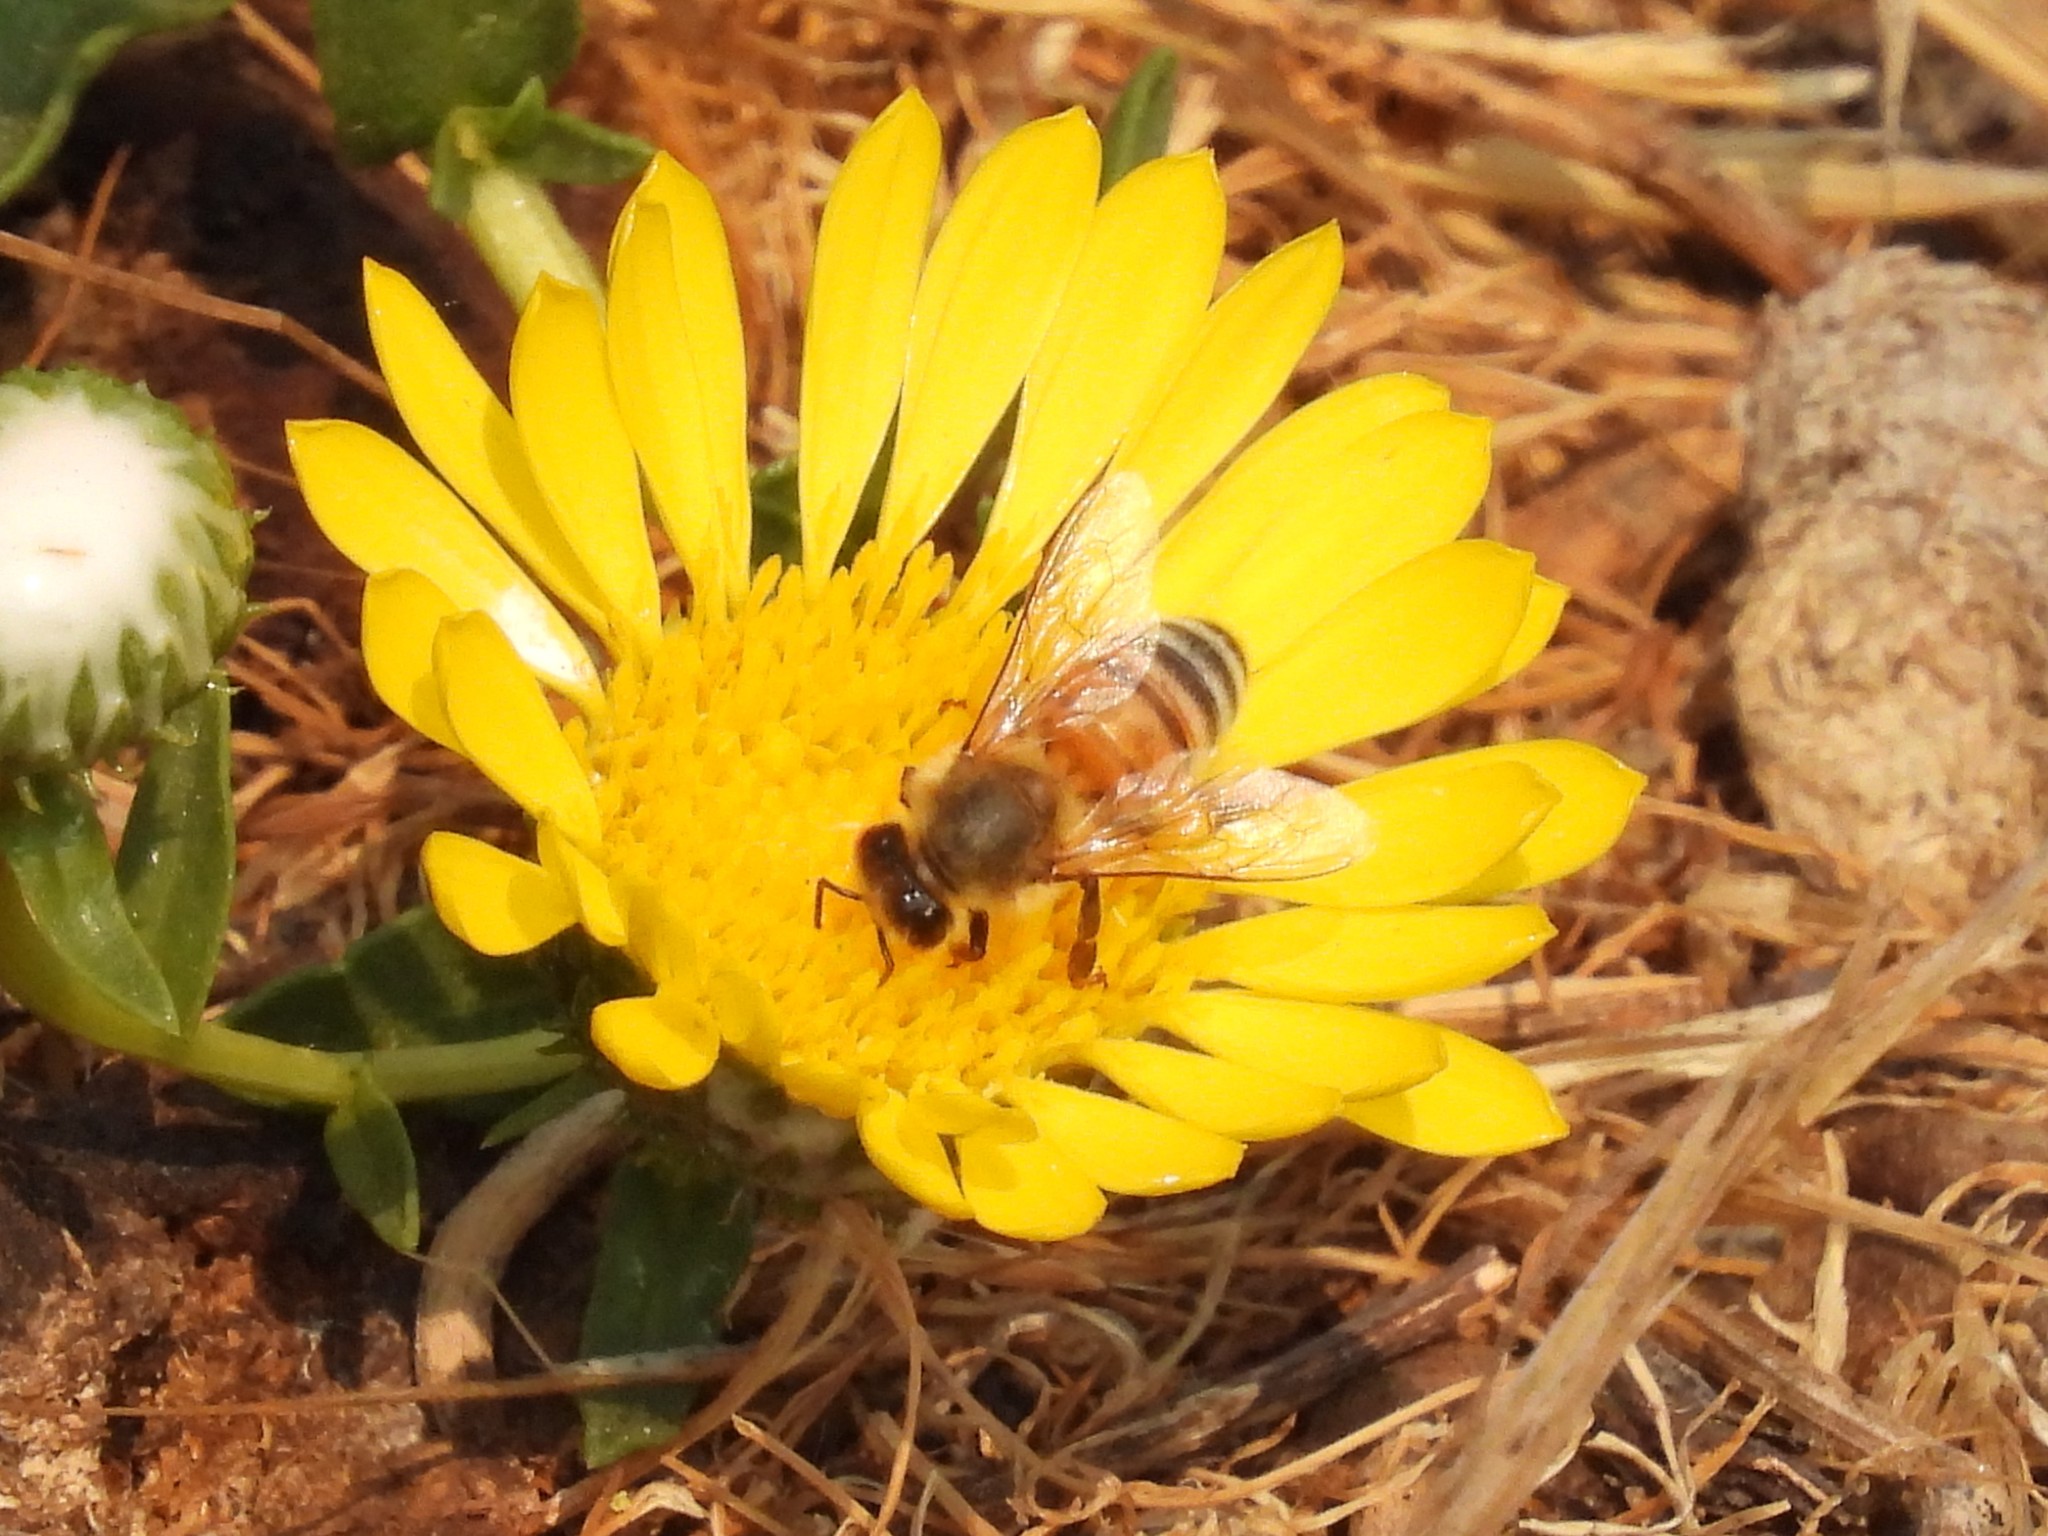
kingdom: Animalia
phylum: Arthropoda
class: Insecta
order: Hymenoptera
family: Apidae
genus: Apis
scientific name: Apis mellifera
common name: Honey bee
